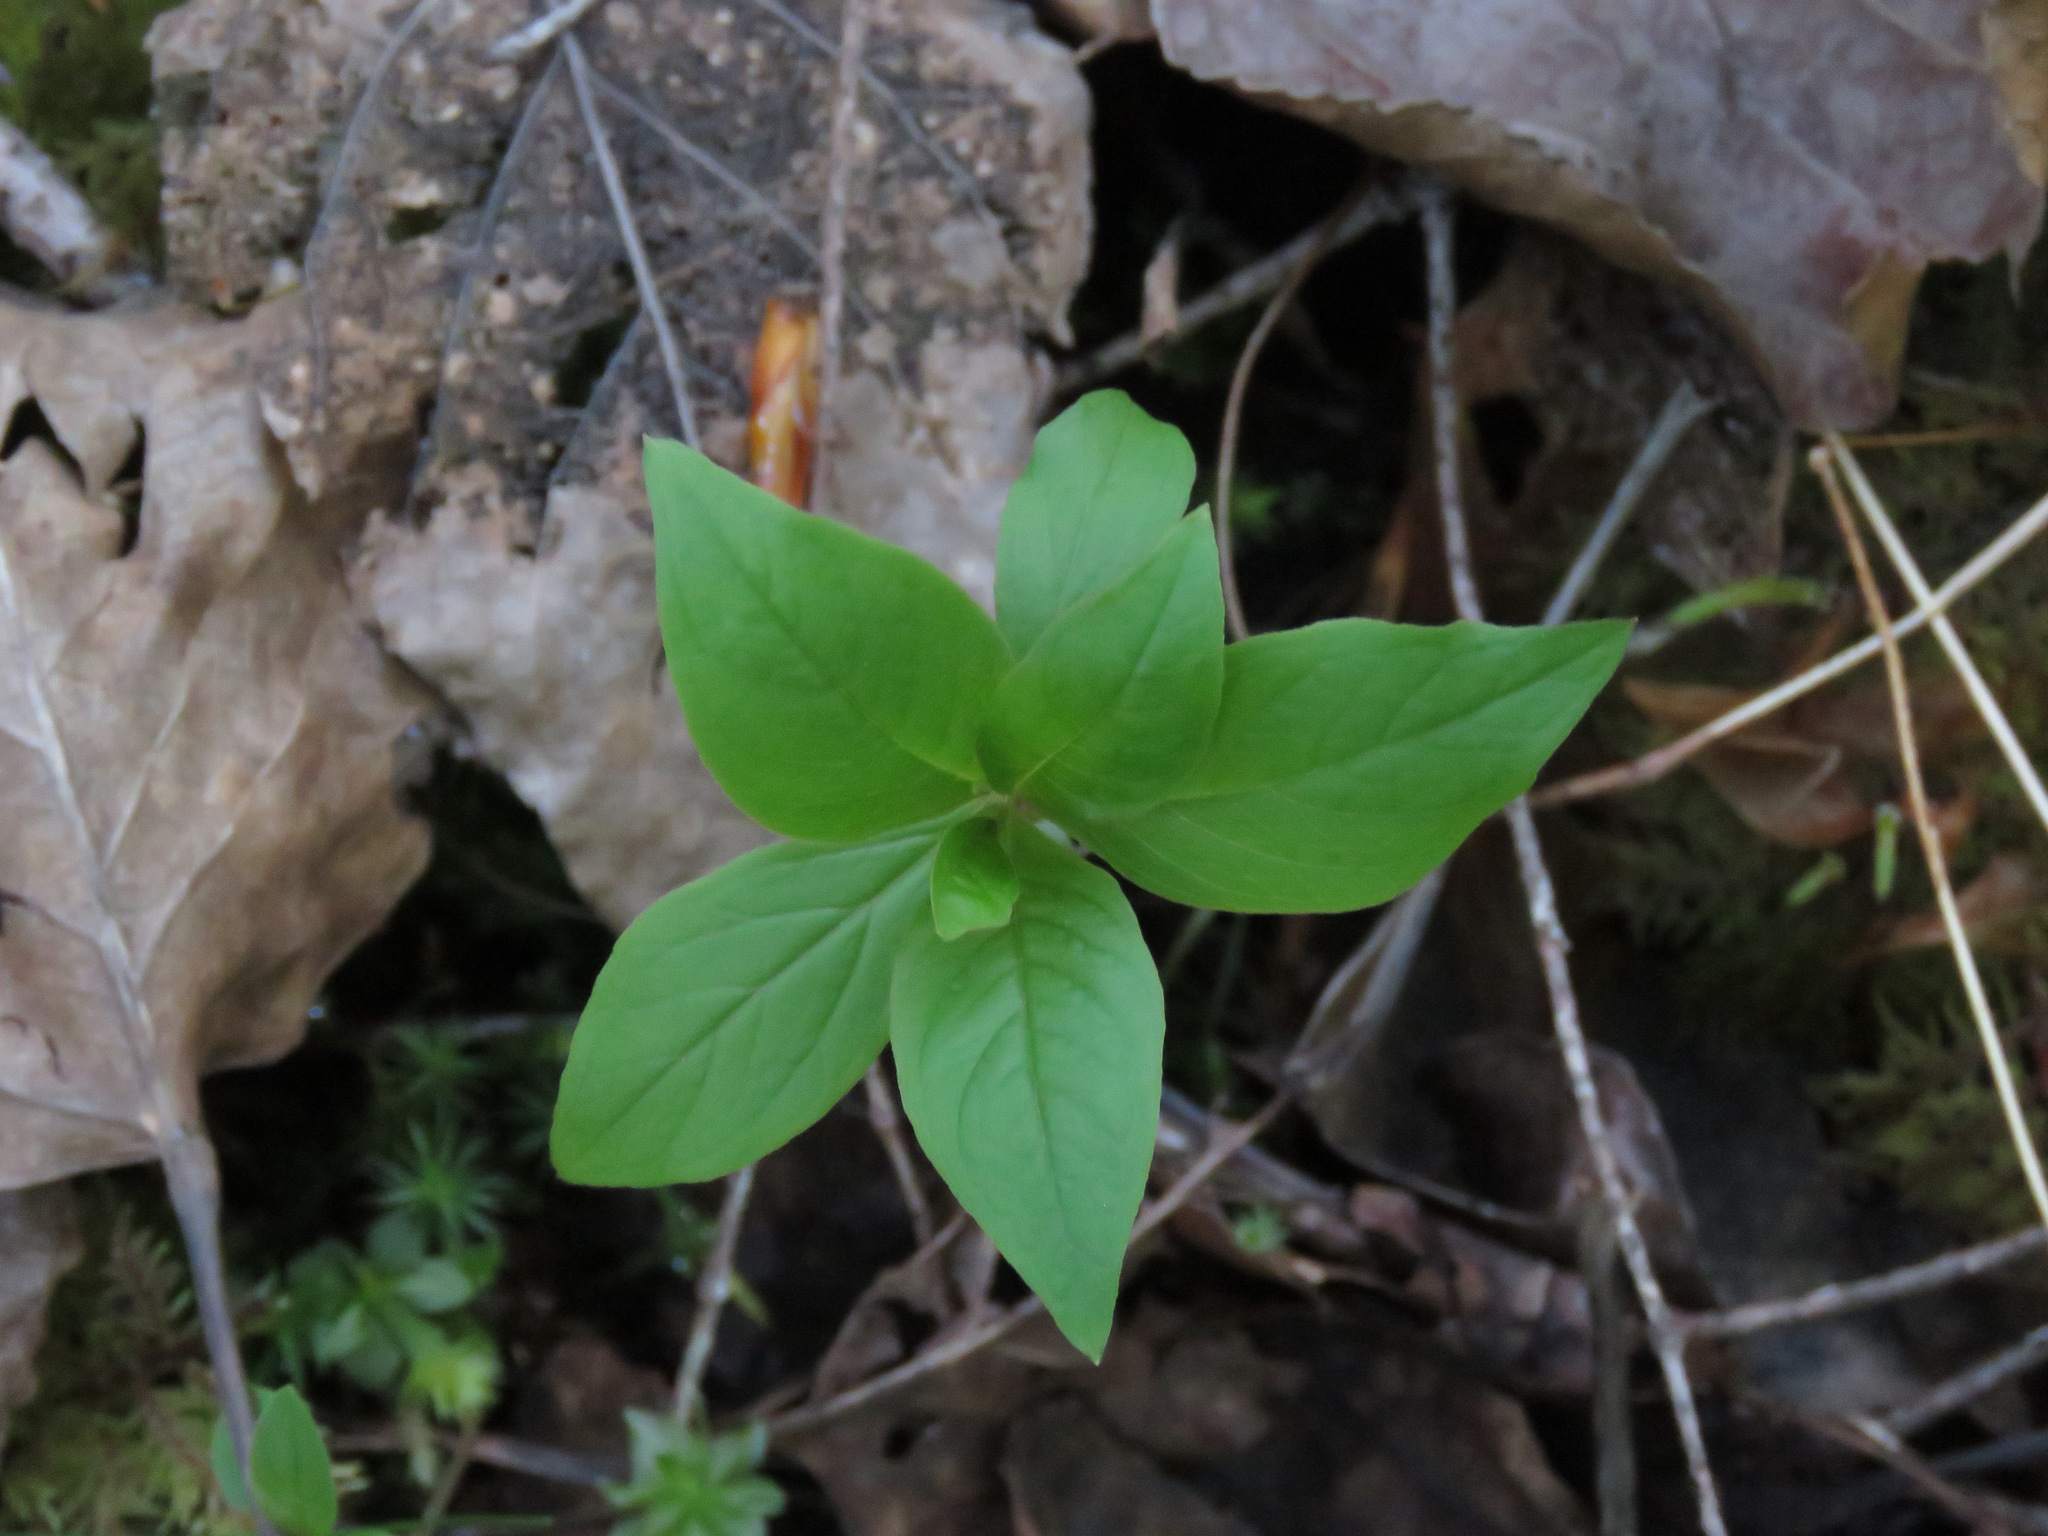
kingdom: Plantae
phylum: Tracheophyta
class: Magnoliopsida
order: Ericales
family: Primulaceae
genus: Lysimachia
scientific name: Lysimachia latifolia
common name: Pacific starflower
